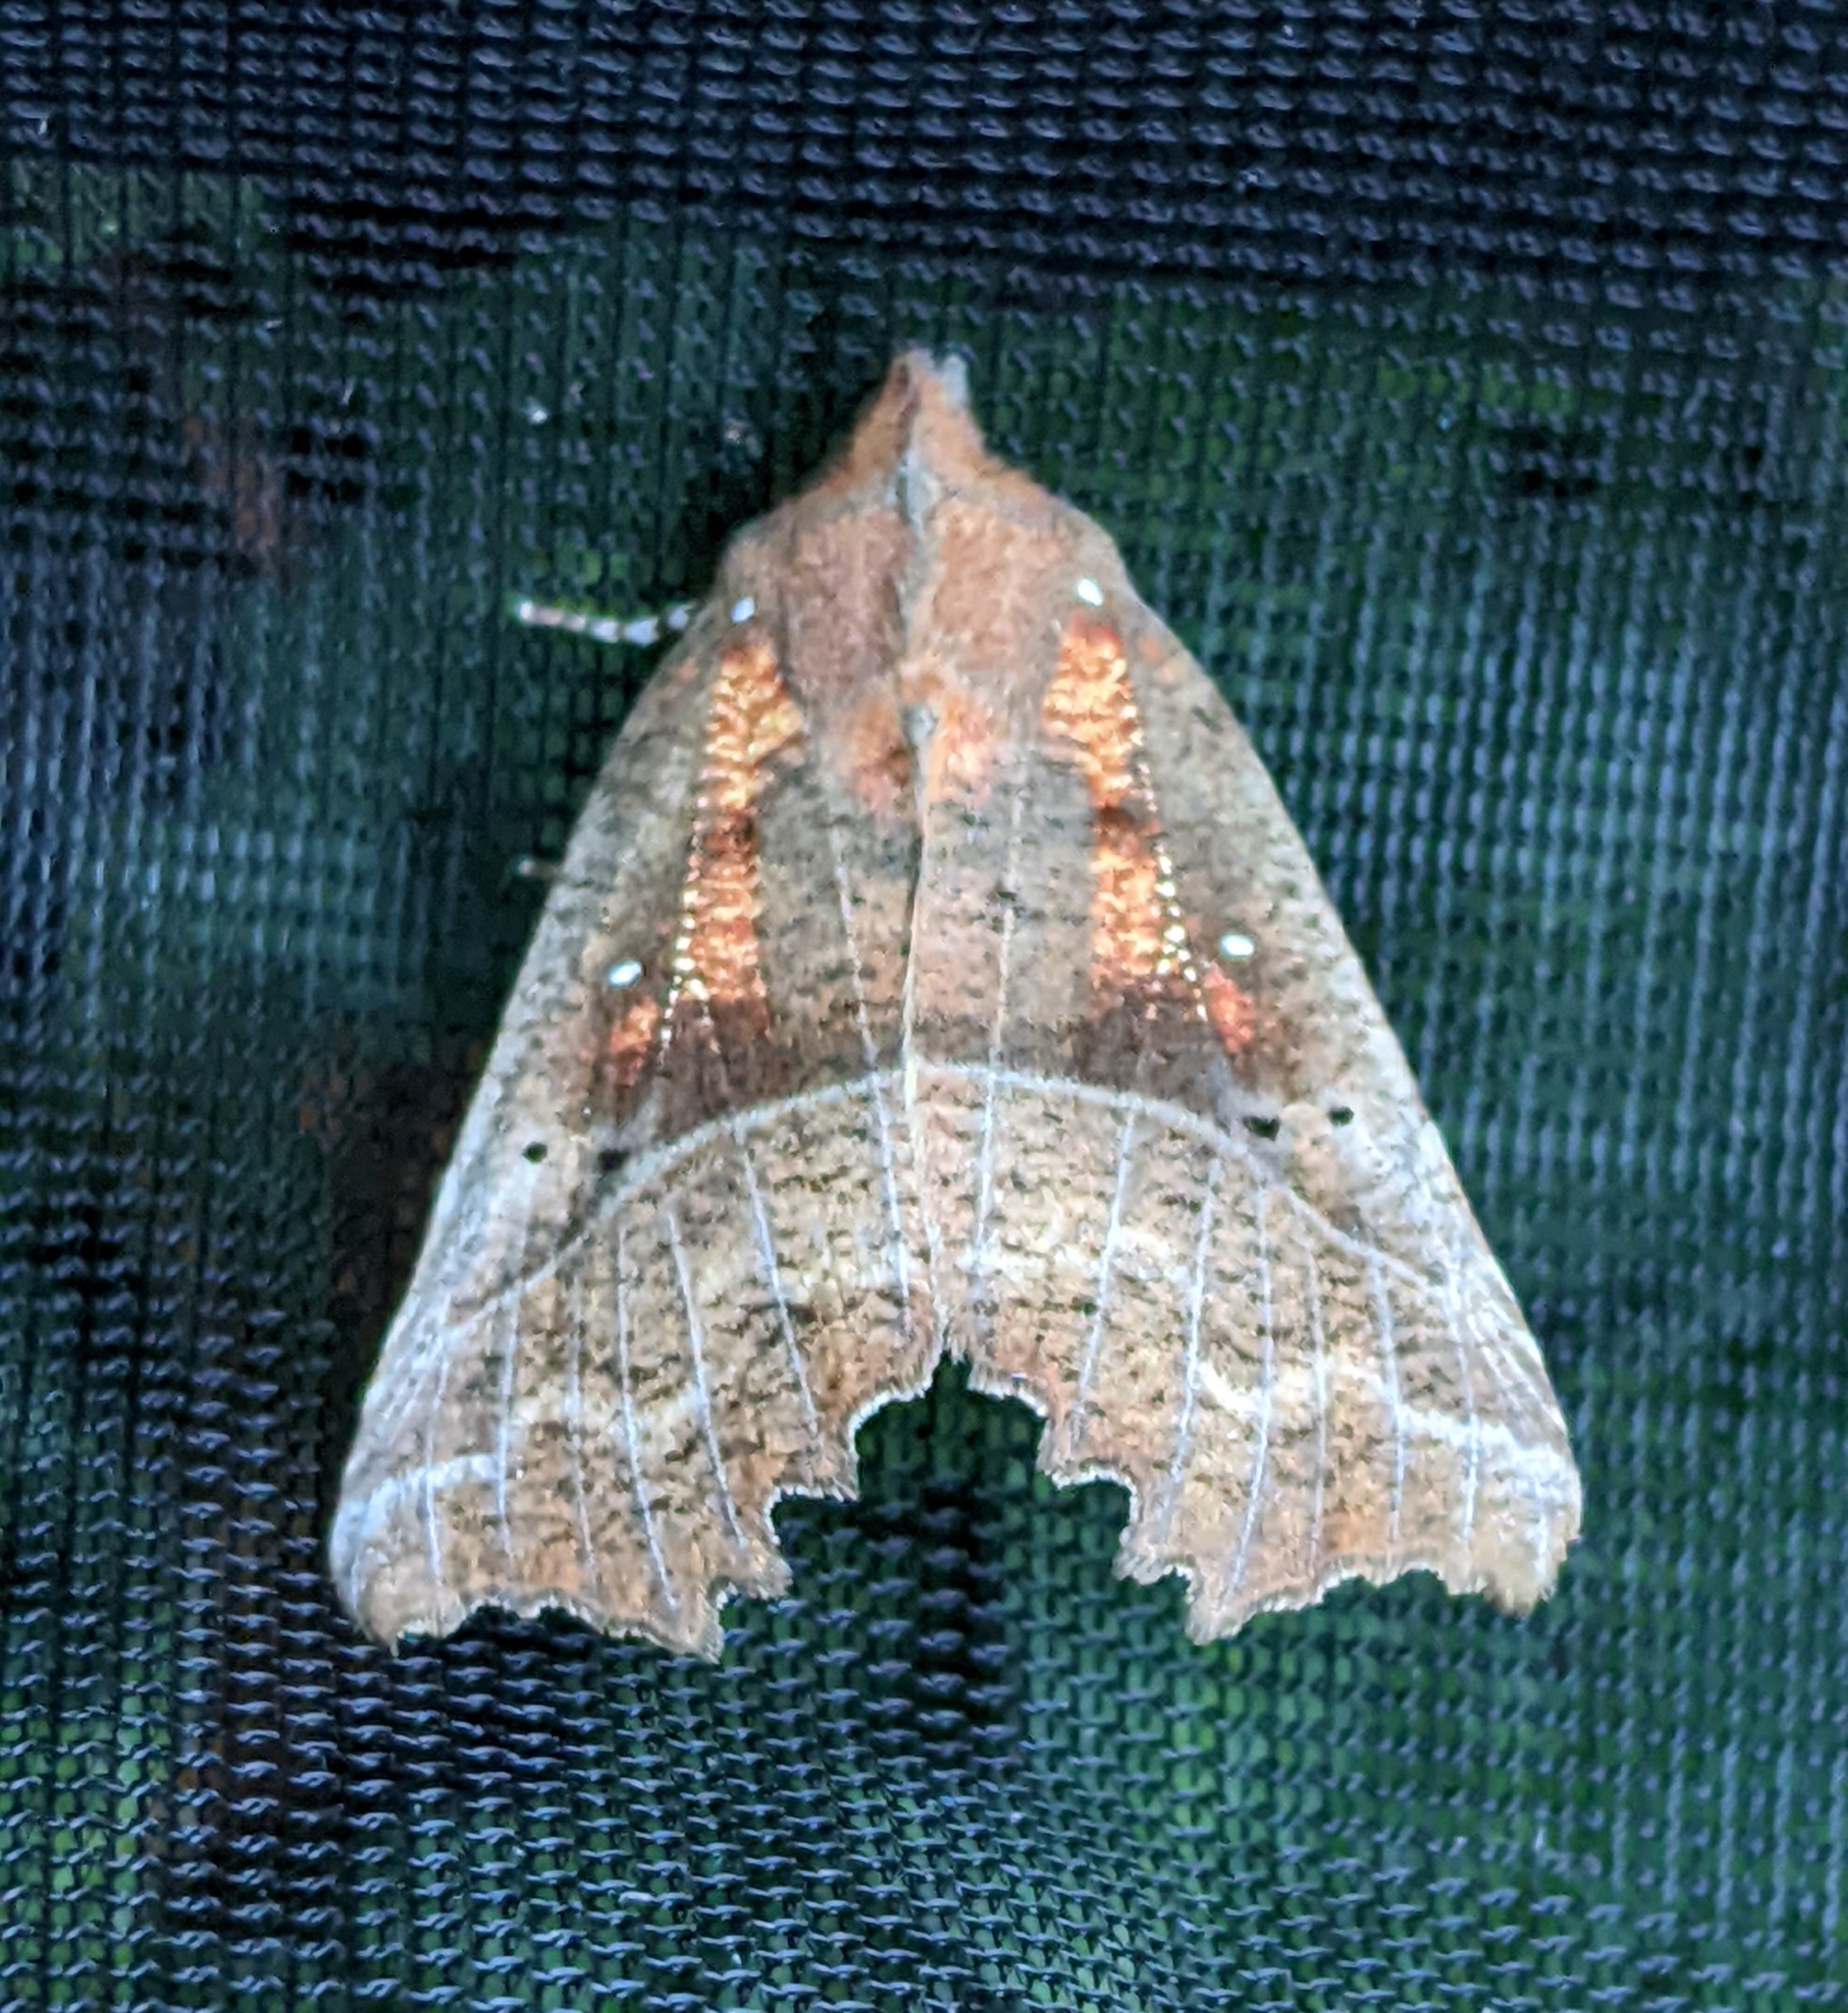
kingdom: Animalia
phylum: Arthropoda
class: Insecta
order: Lepidoptera
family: Erebidae
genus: Scoliopteryx
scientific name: Scoliopteryx libatrix
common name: Herald
